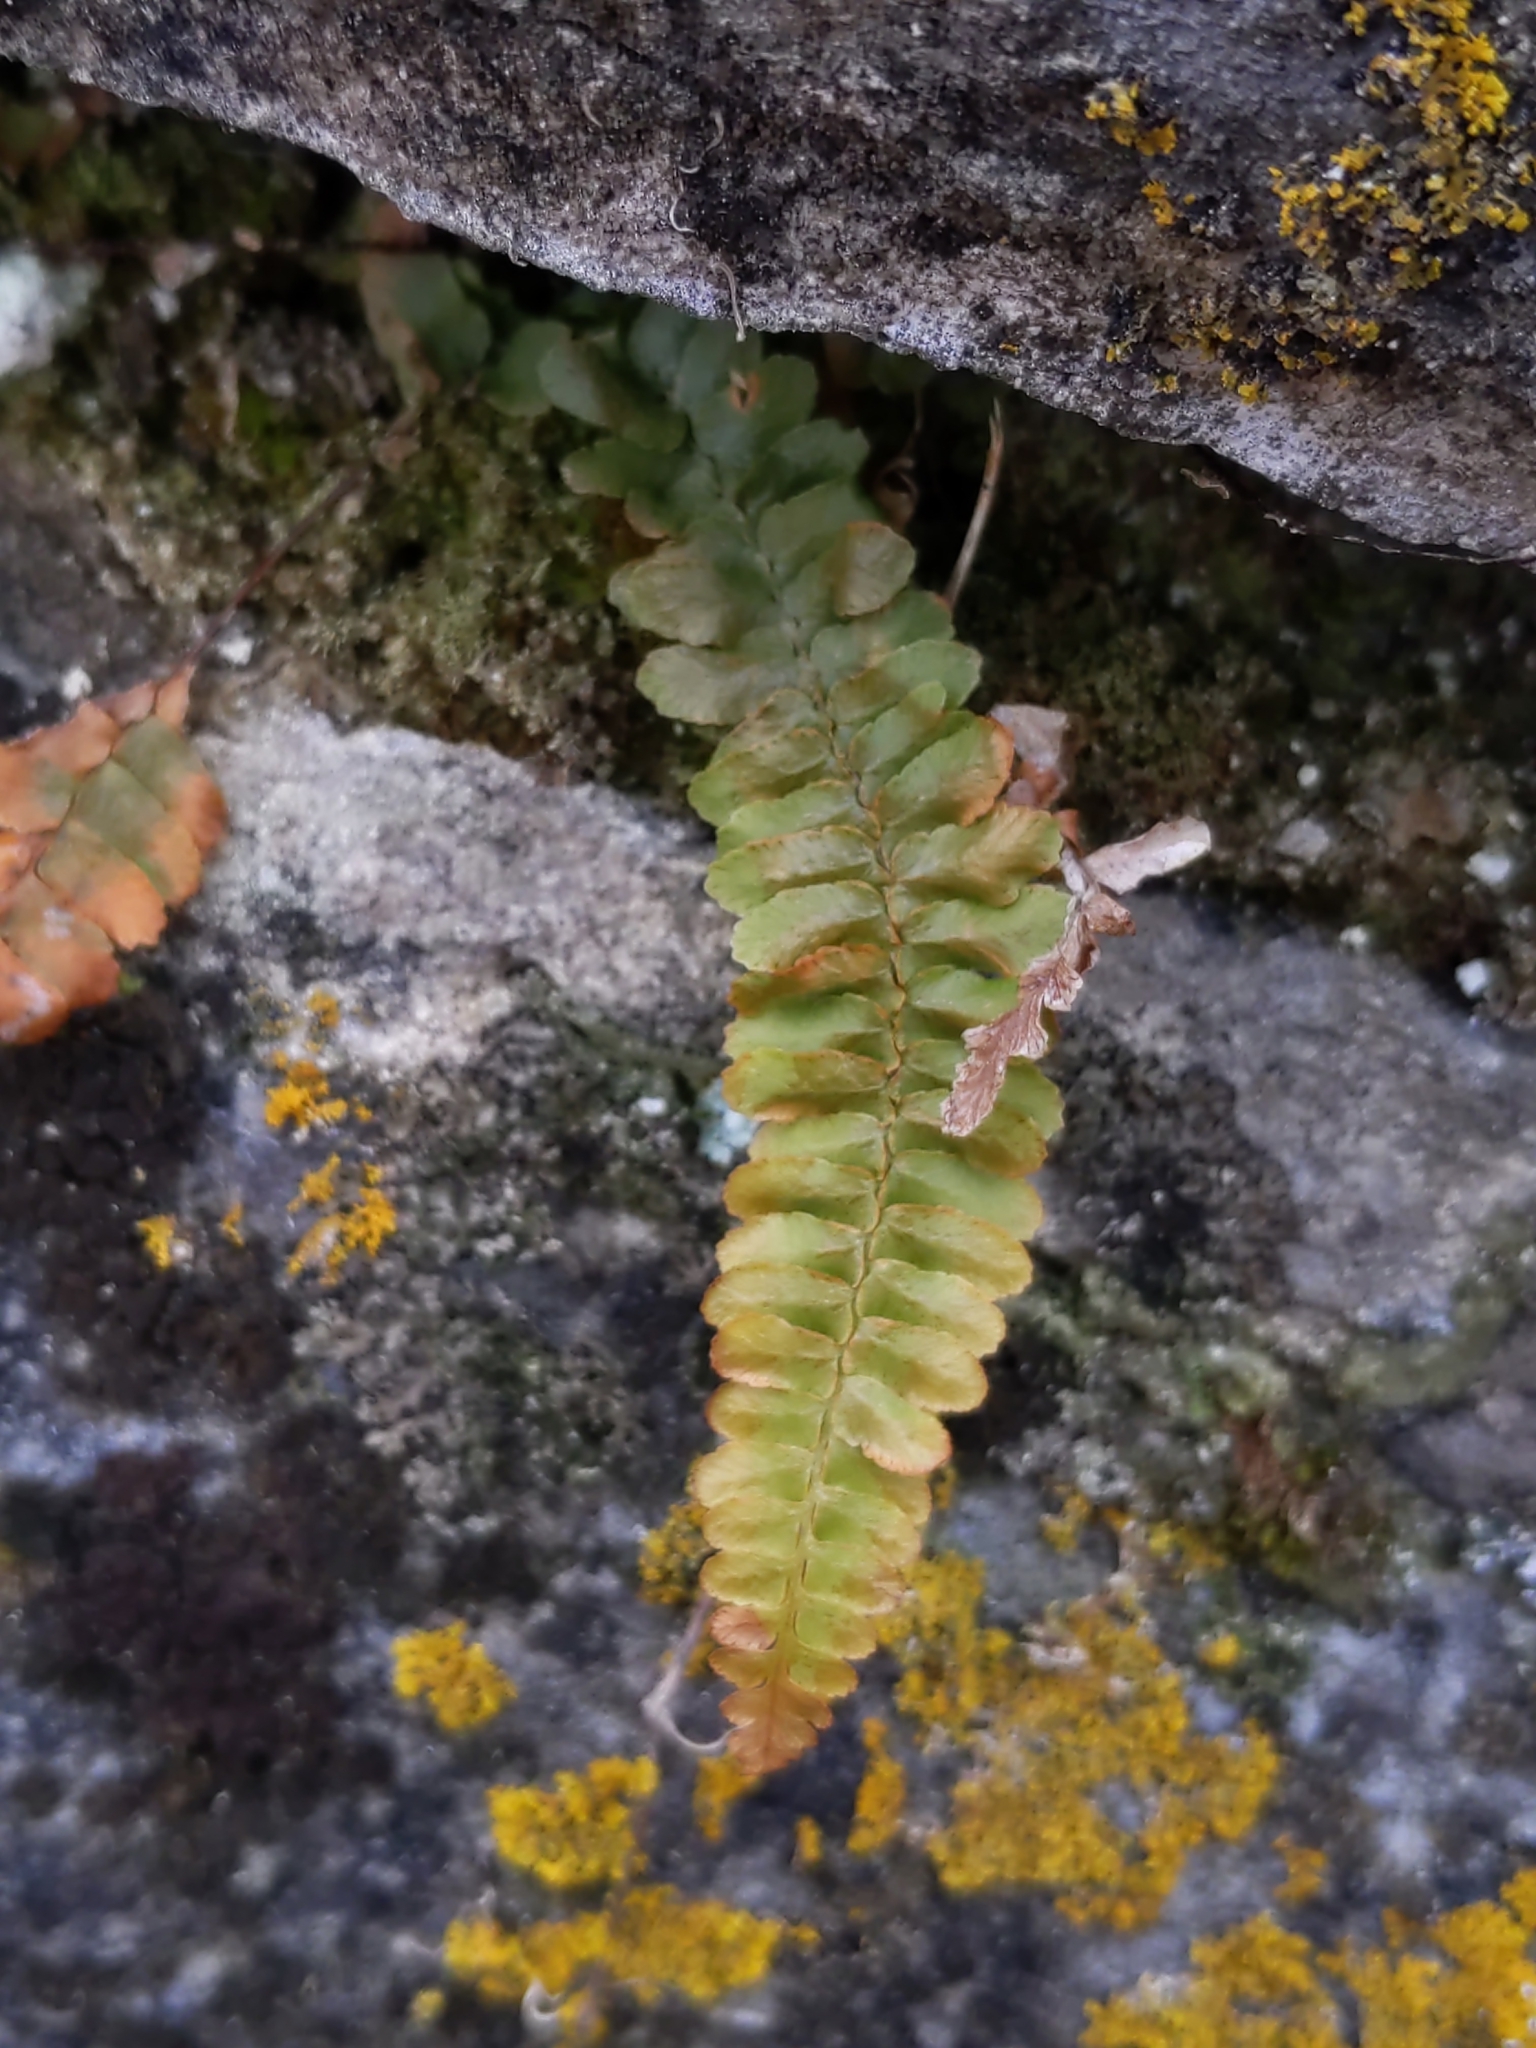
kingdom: Plantae
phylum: Tracheophyta
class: Polypodiopsida
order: Polypodiales
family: Aspleniaceae
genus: Asplenium
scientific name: Asplenium platyneuron
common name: Ebony spleenwort
